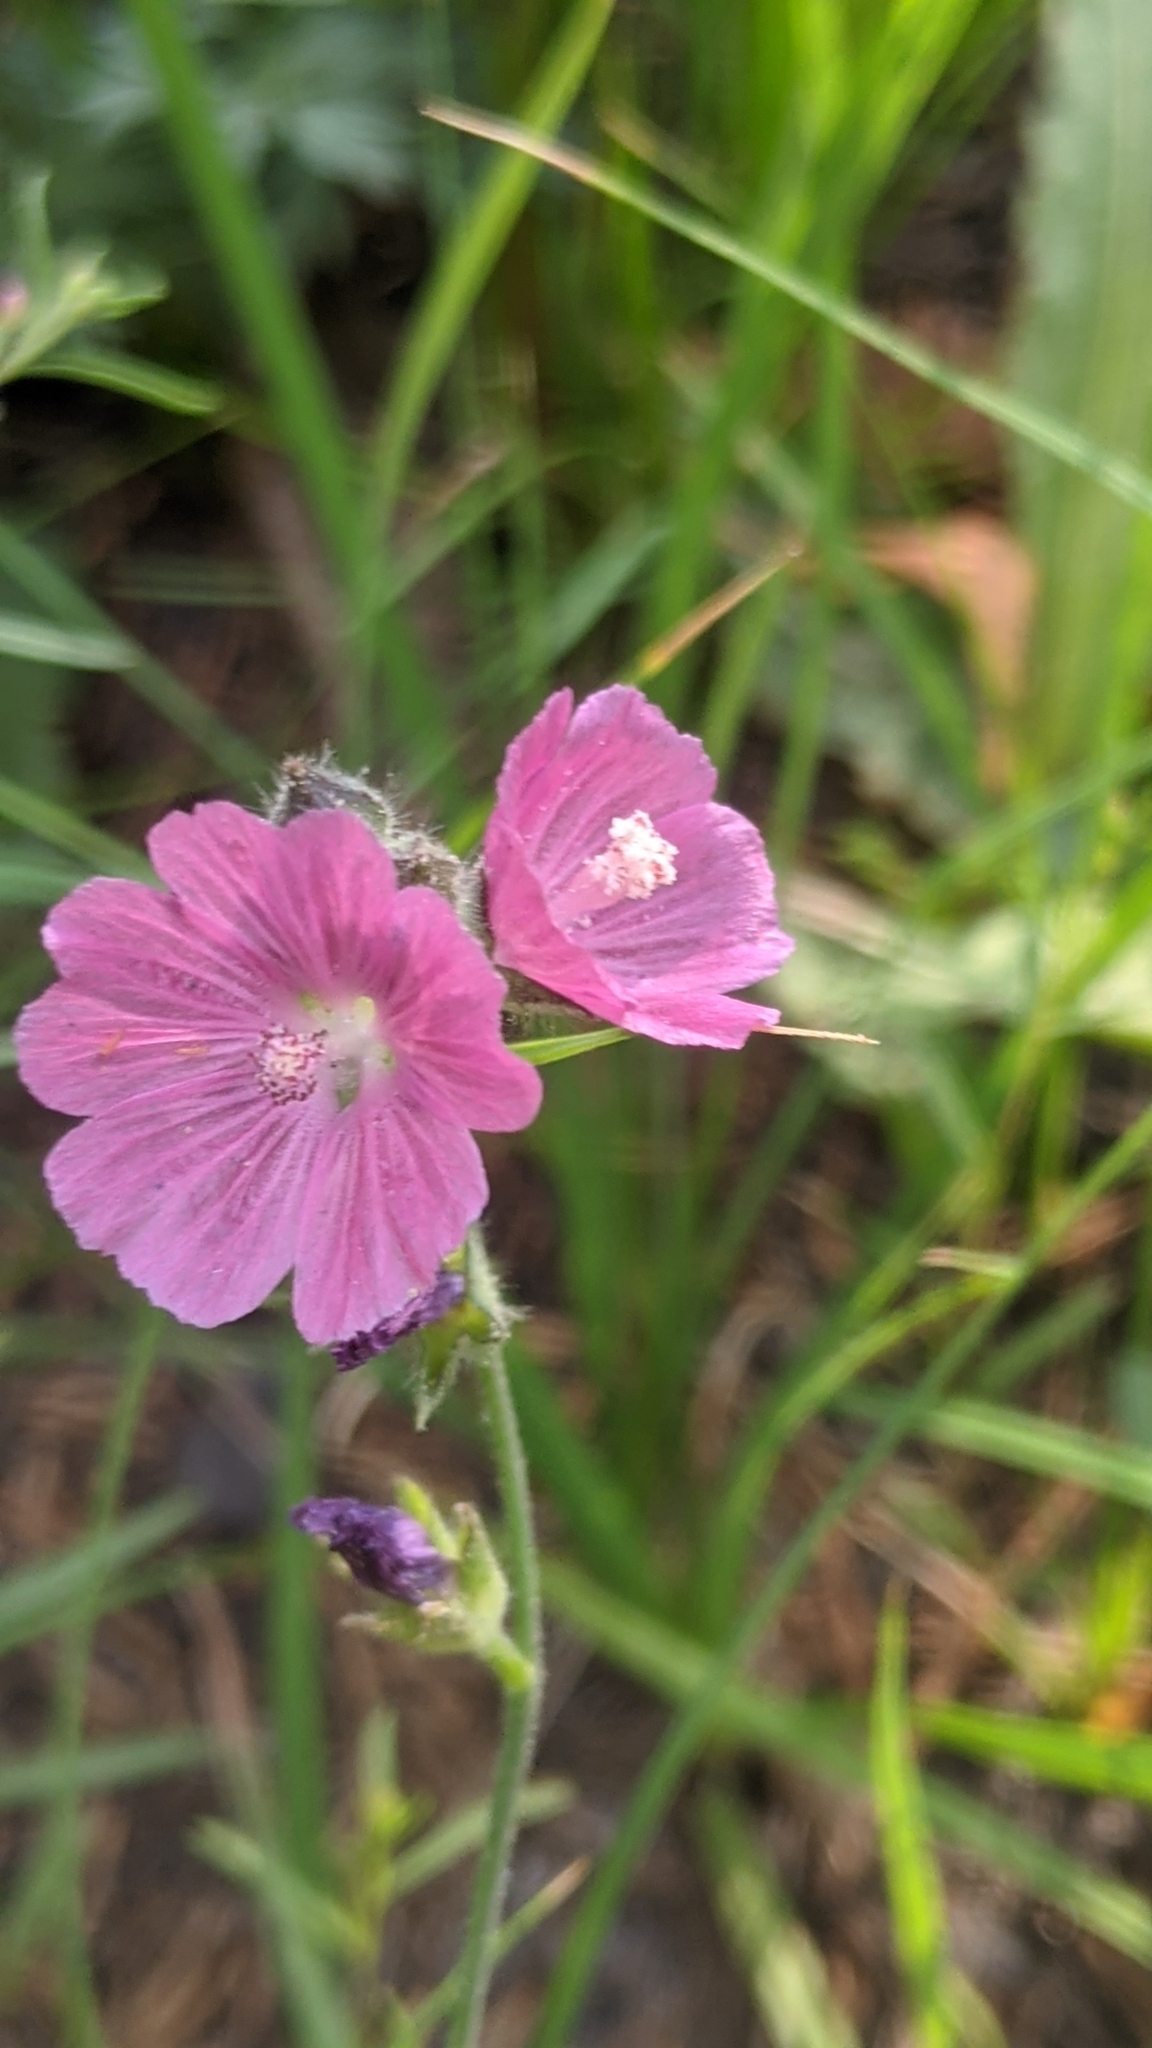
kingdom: Plantae
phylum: Tracheophyta
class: Magnoliopsida
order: Malvales
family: Malvaceae
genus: Sidalcea
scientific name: Sidalcea glaucescens
